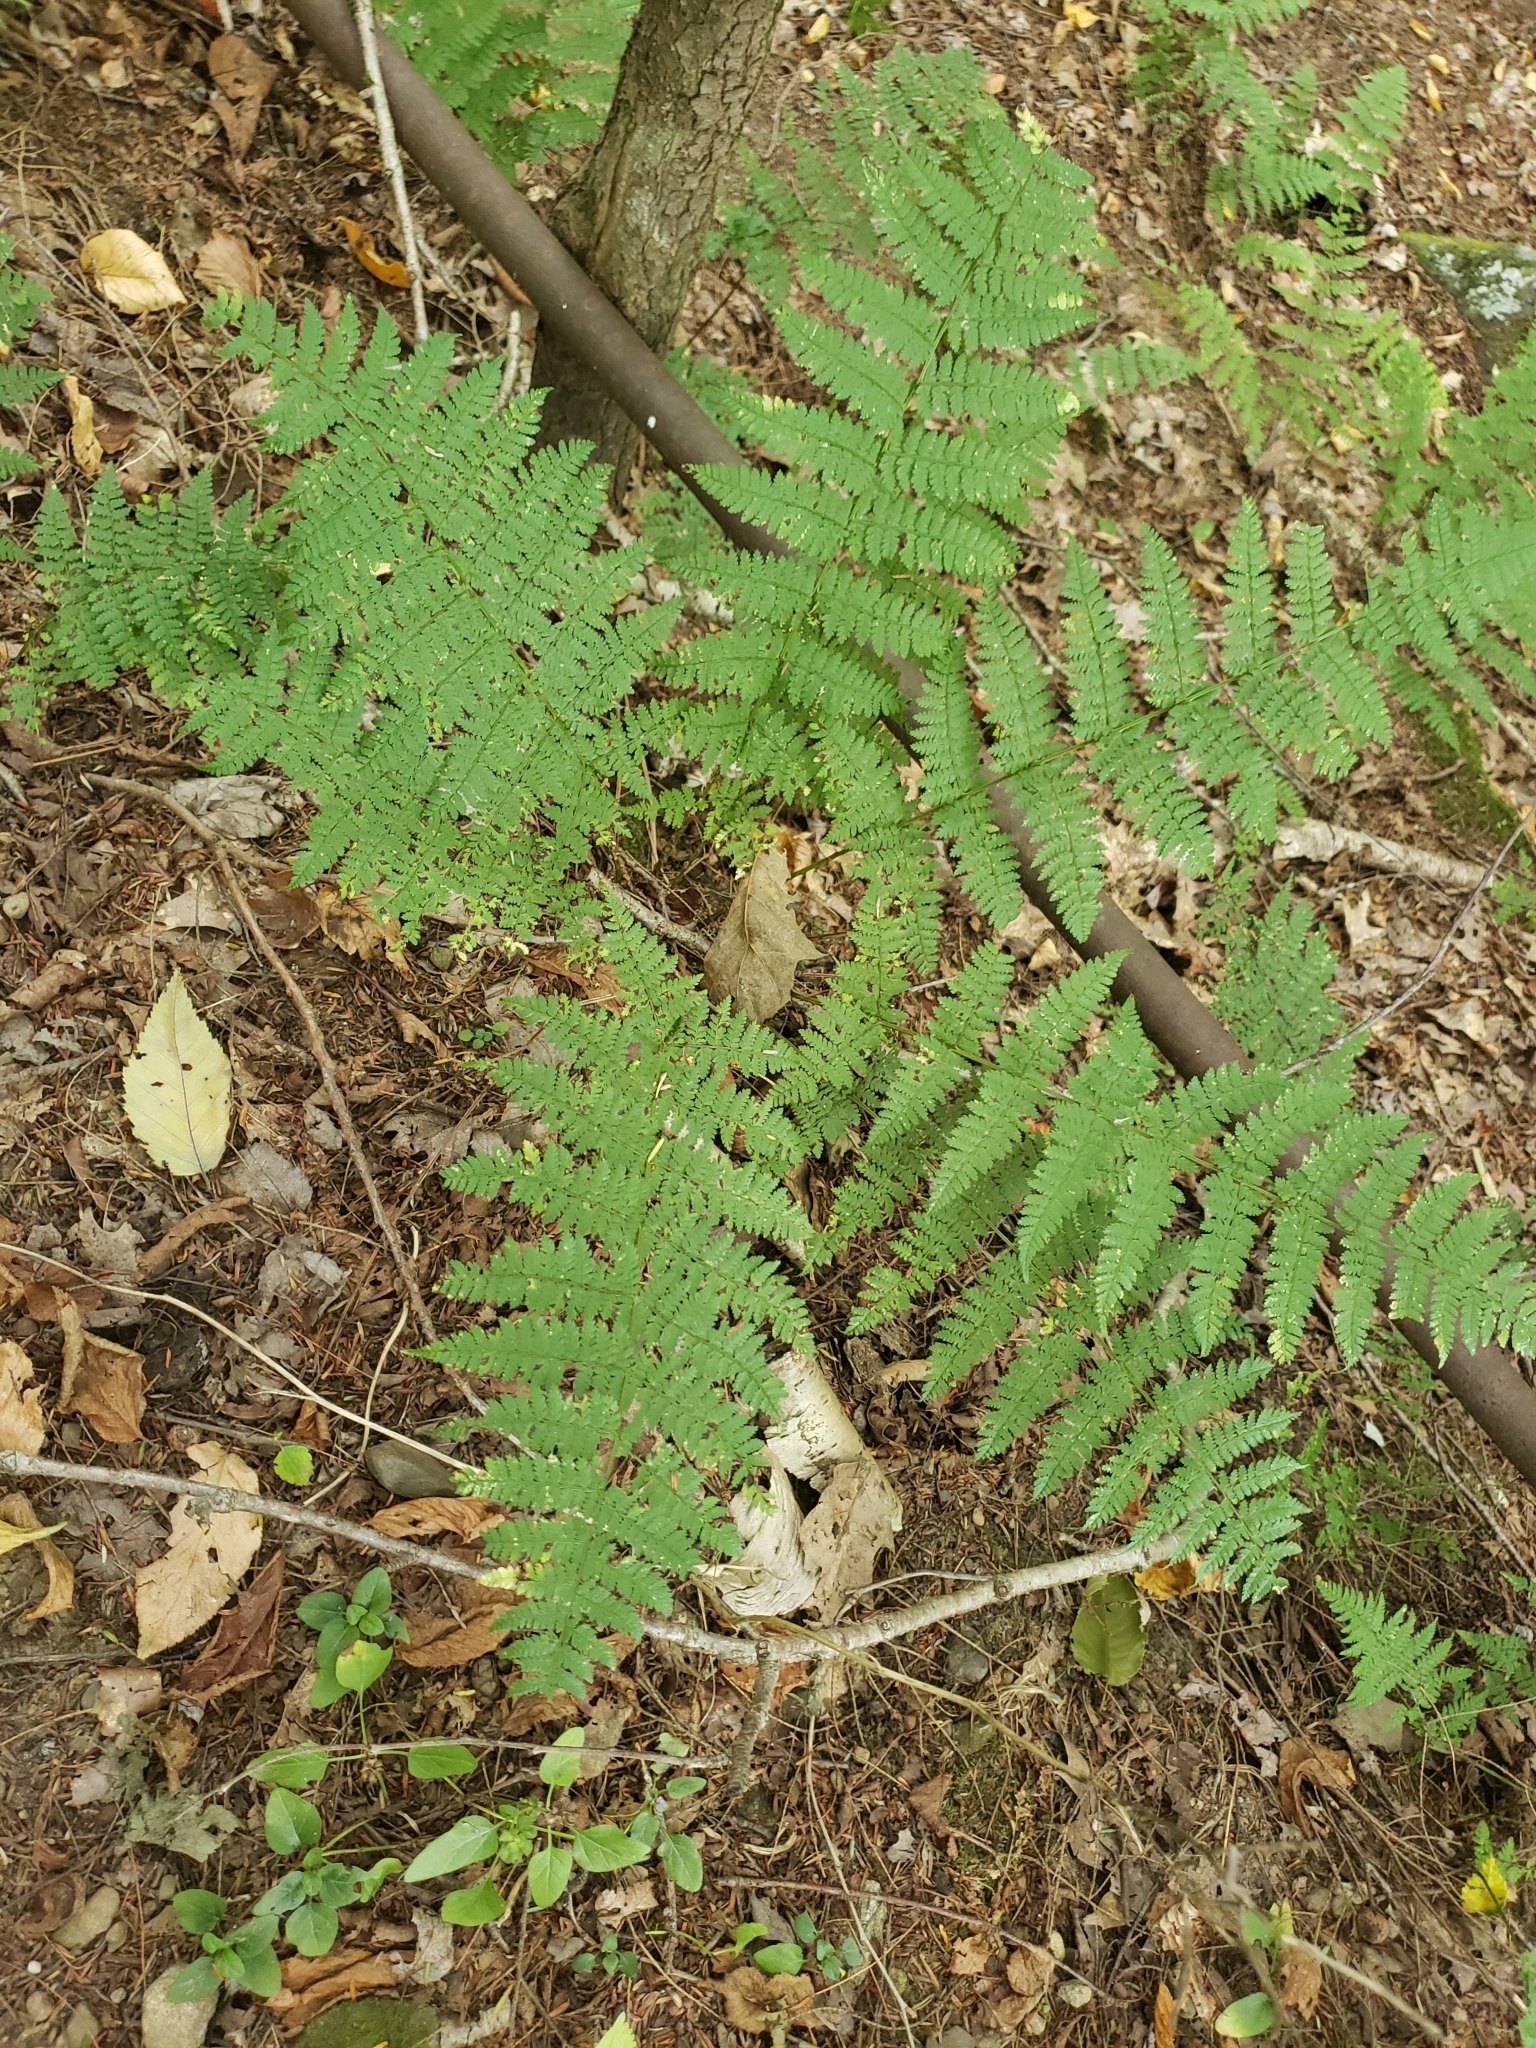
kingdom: Plantae
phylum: Tracheophyta
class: Polypodiopsida
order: Polypodiales
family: Dryopteridaceae
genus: Dryopteris
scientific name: Dryopteris intermedia
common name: Evergreen wood fern
